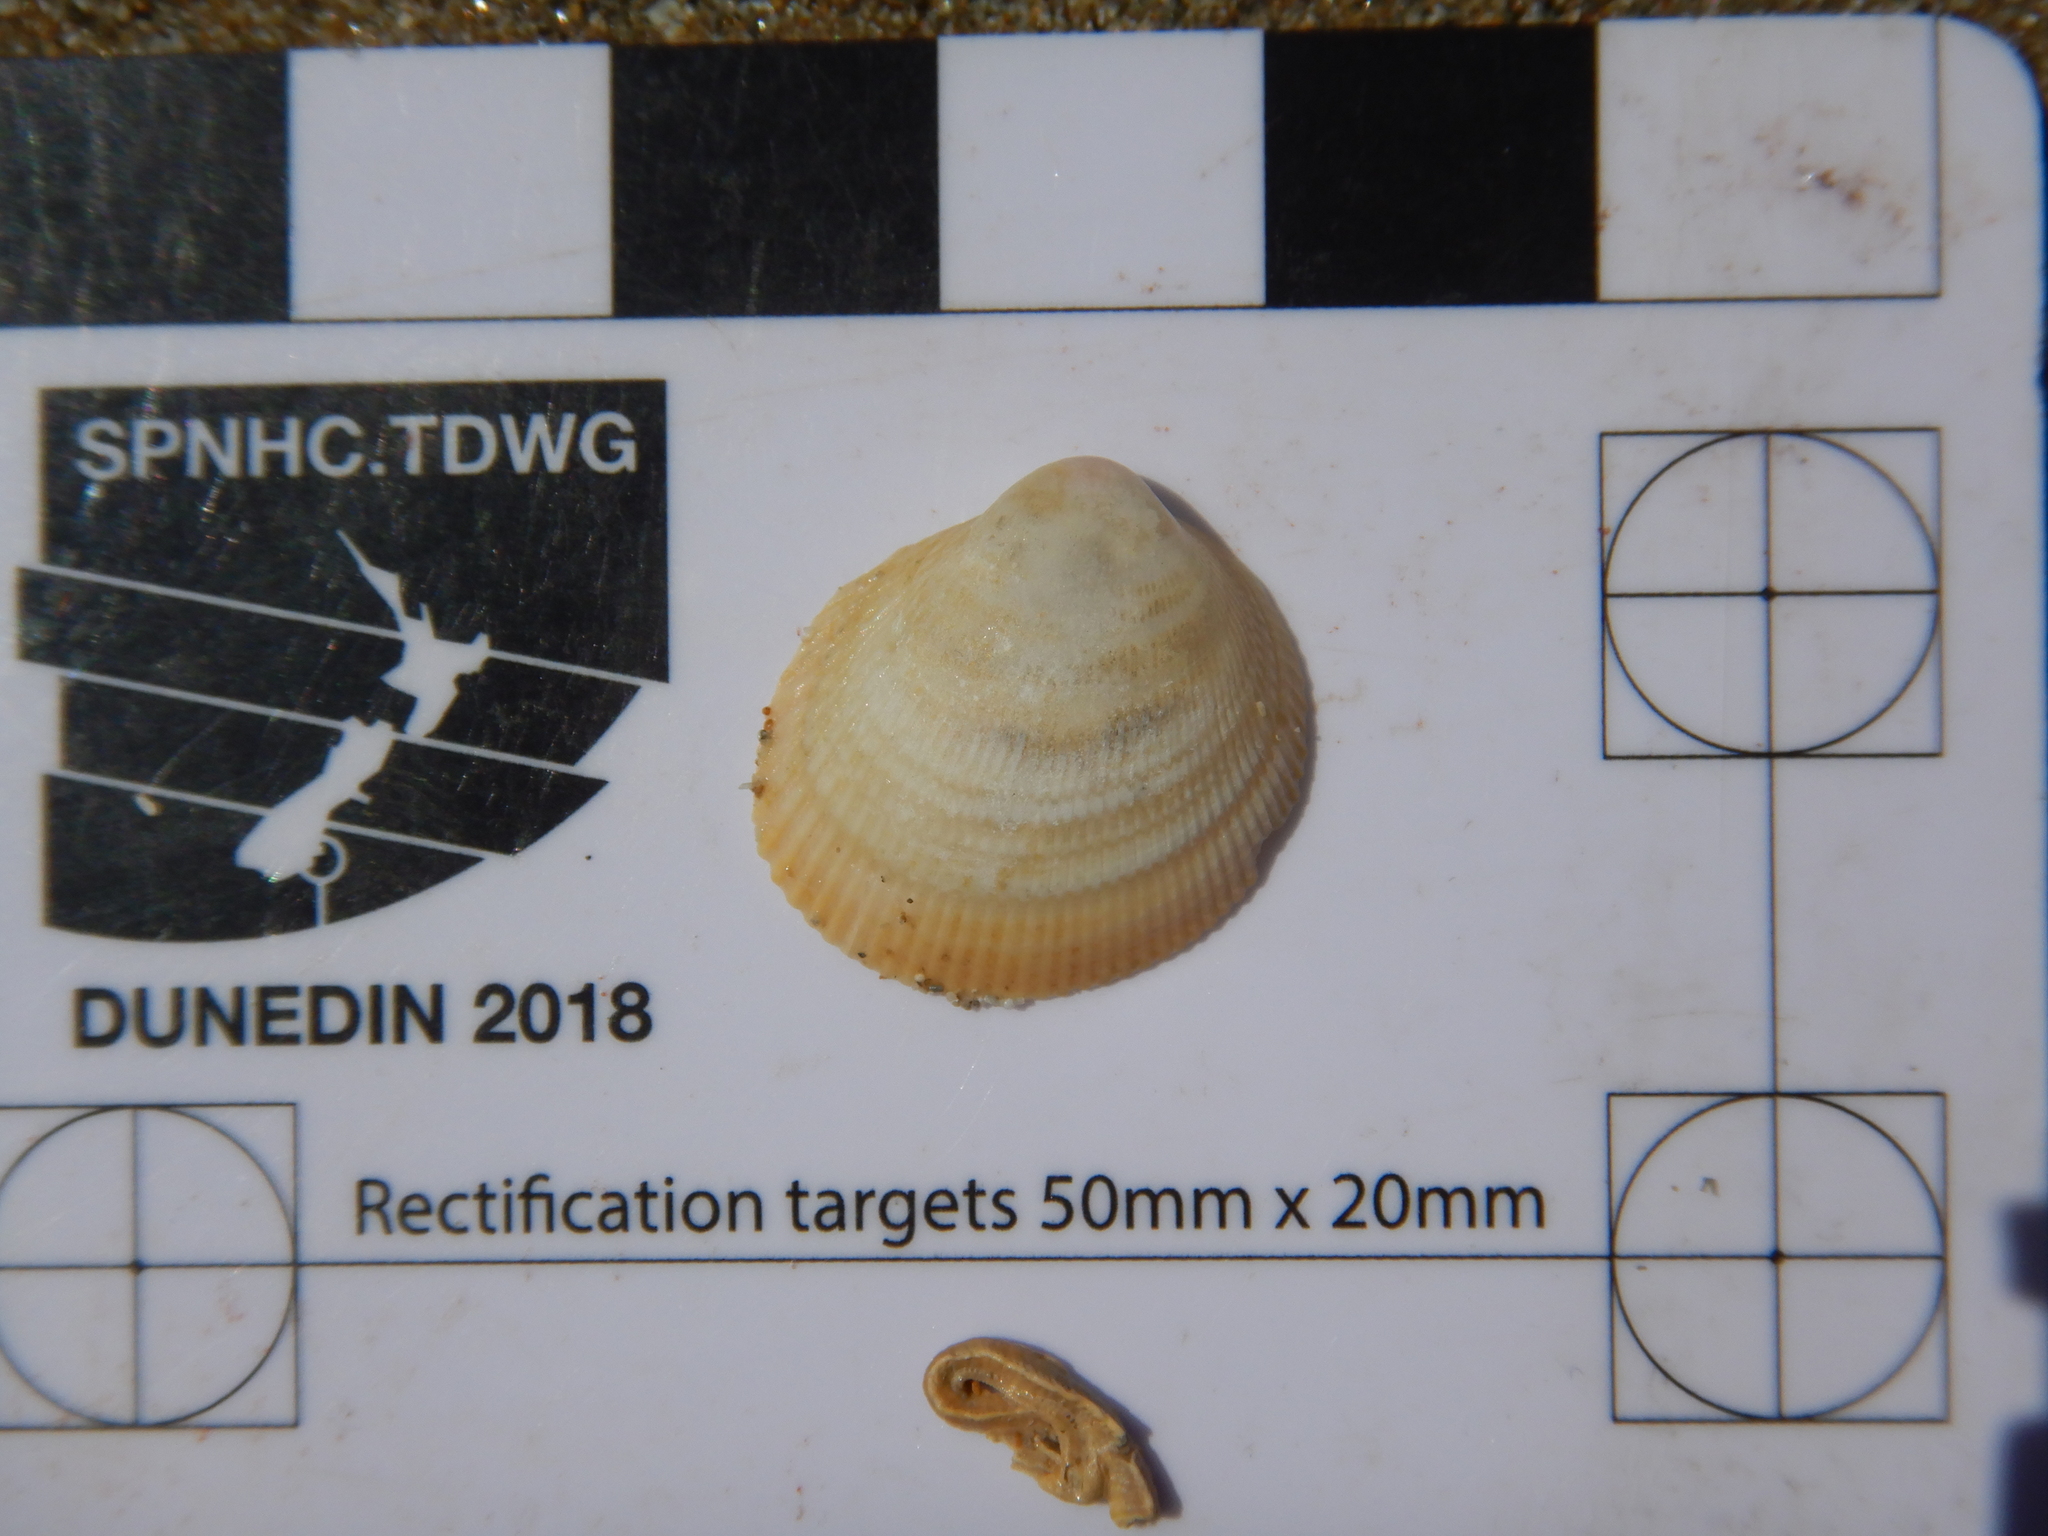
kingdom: Animalia
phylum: Mollusca
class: Bivalvia
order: Cardiida
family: Cardiidae
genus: Fulvia
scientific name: Fulvia tenuicostata
